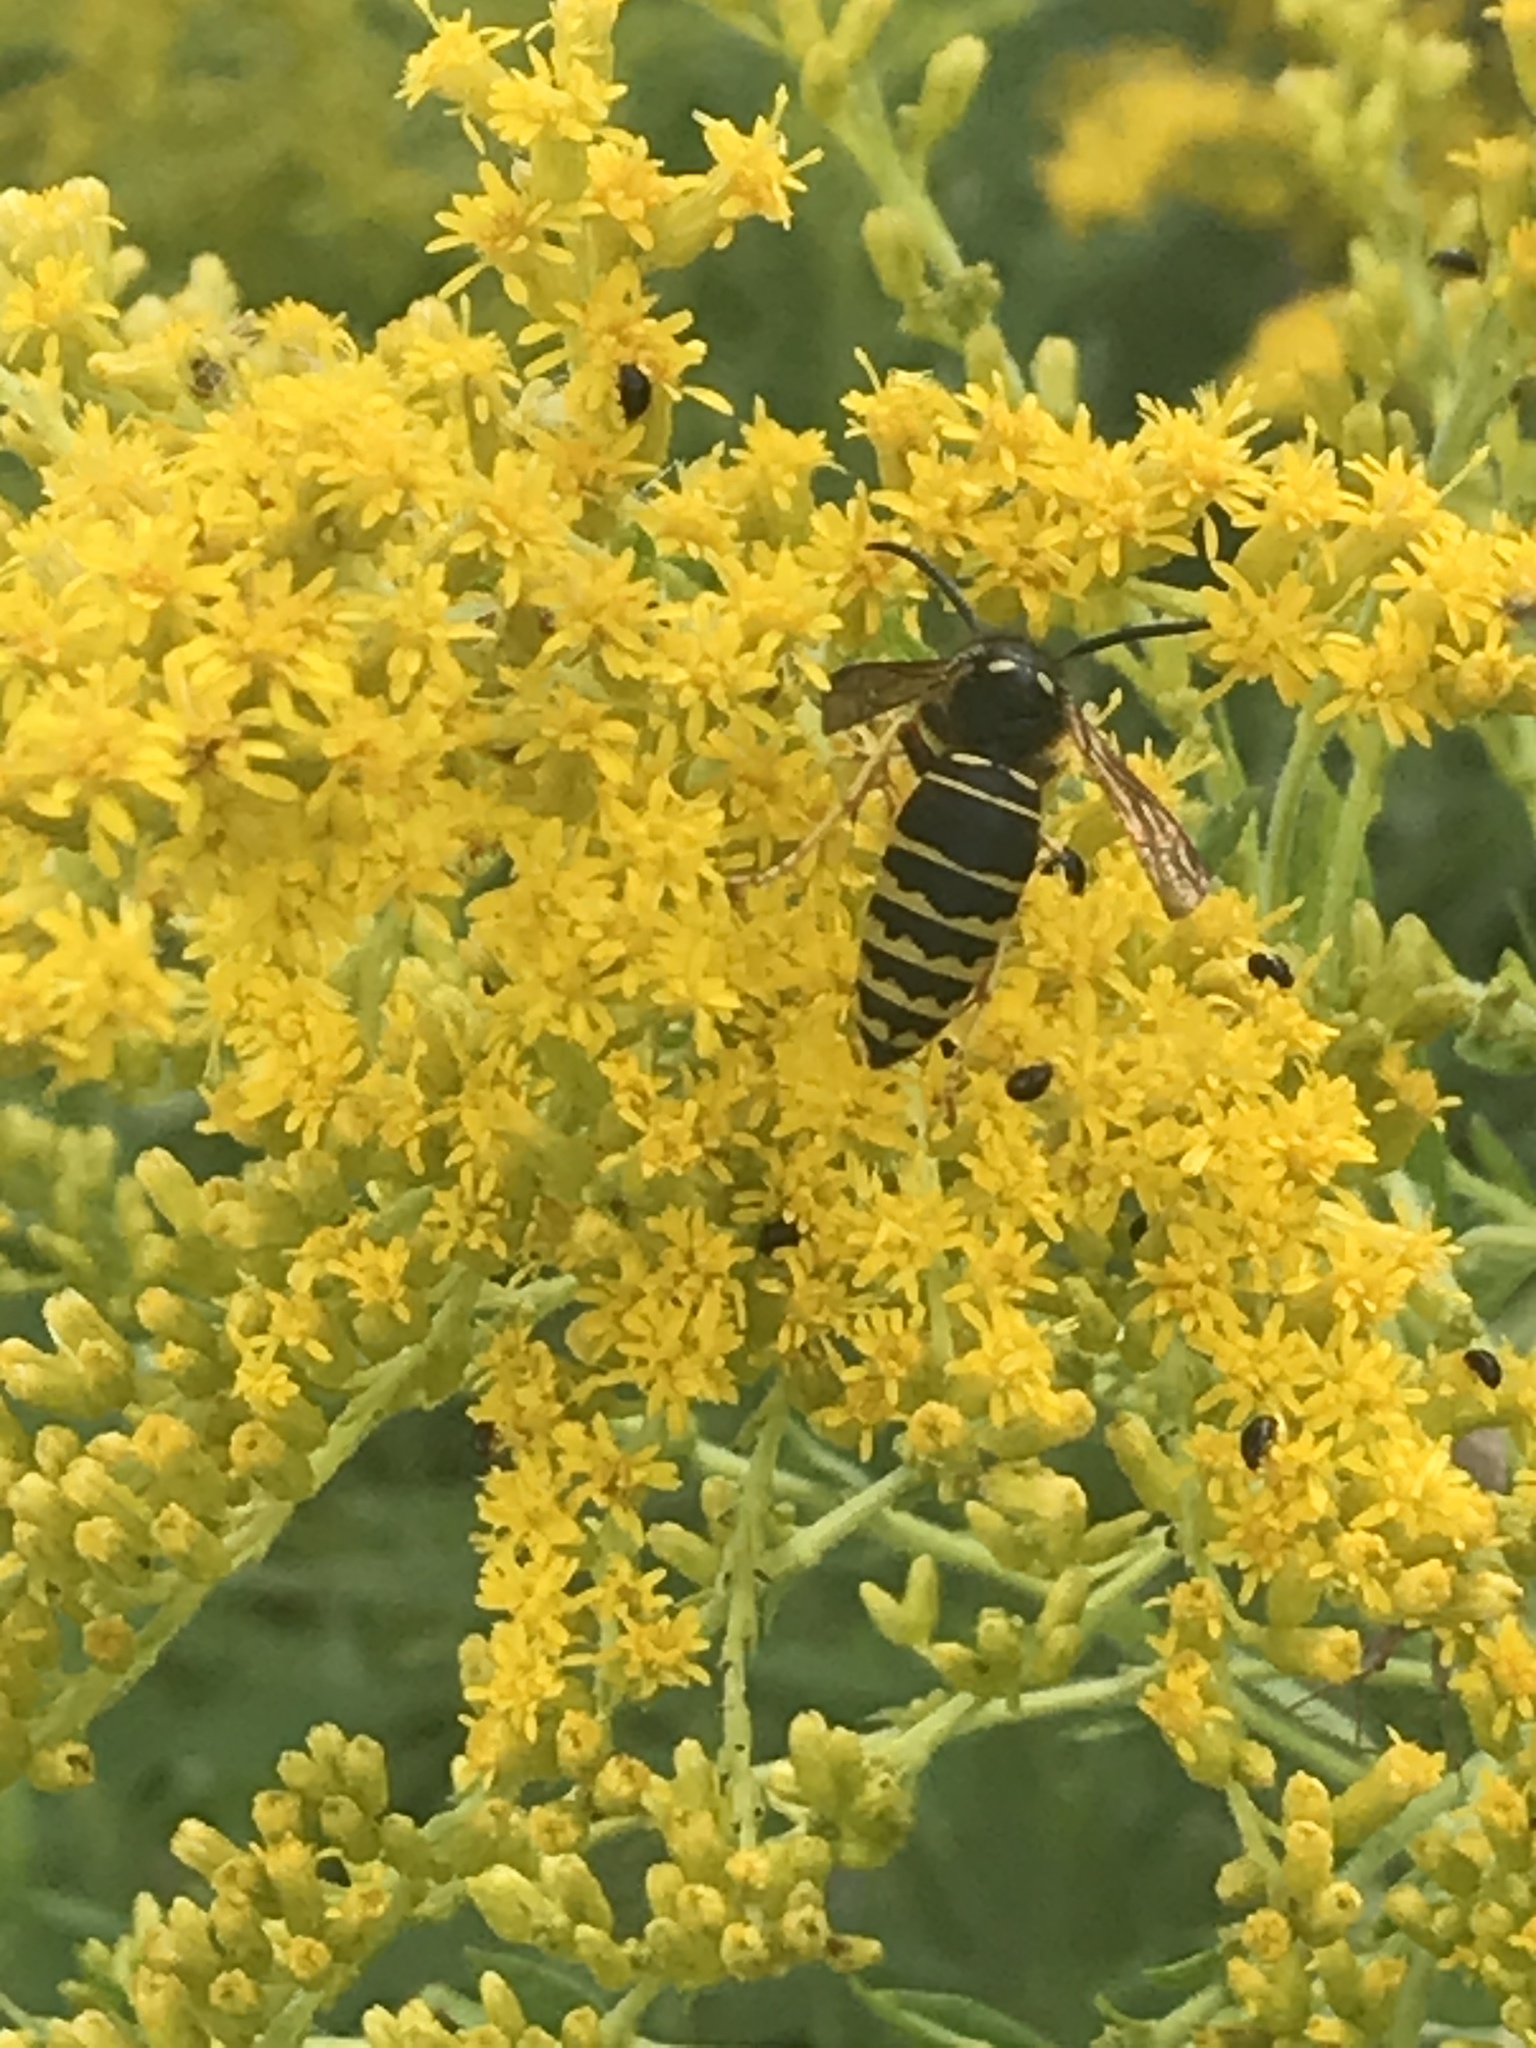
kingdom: Animalia
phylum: Arthropoda
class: Insecta
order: Hymenoptera
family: Vespidae
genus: Vespula
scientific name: Vespula vidua
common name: Widow yellowjacket
